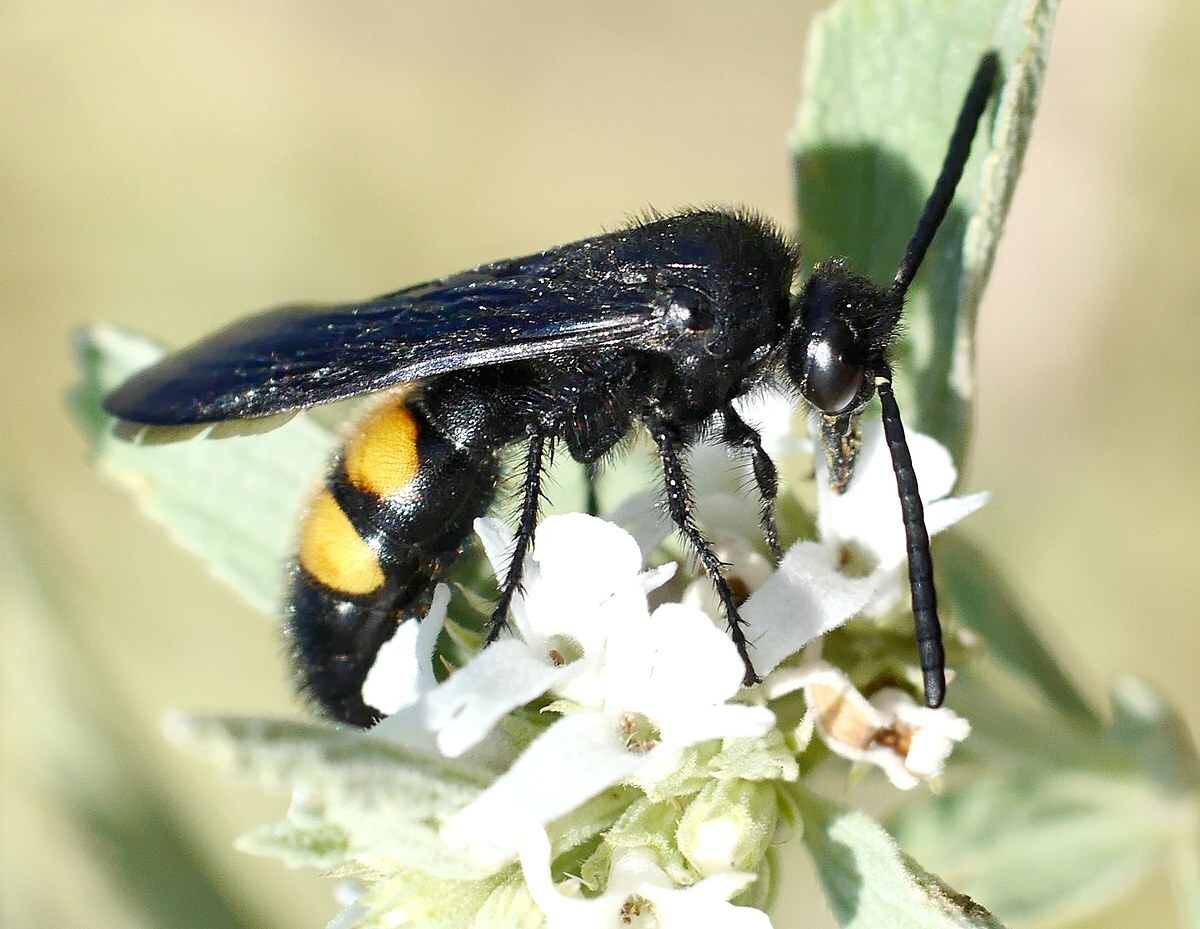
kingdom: Animalia
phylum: Arthropoda
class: Insecta
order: Hymenoptera
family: Scoliidae
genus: Scolia
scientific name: Scolia hirta
